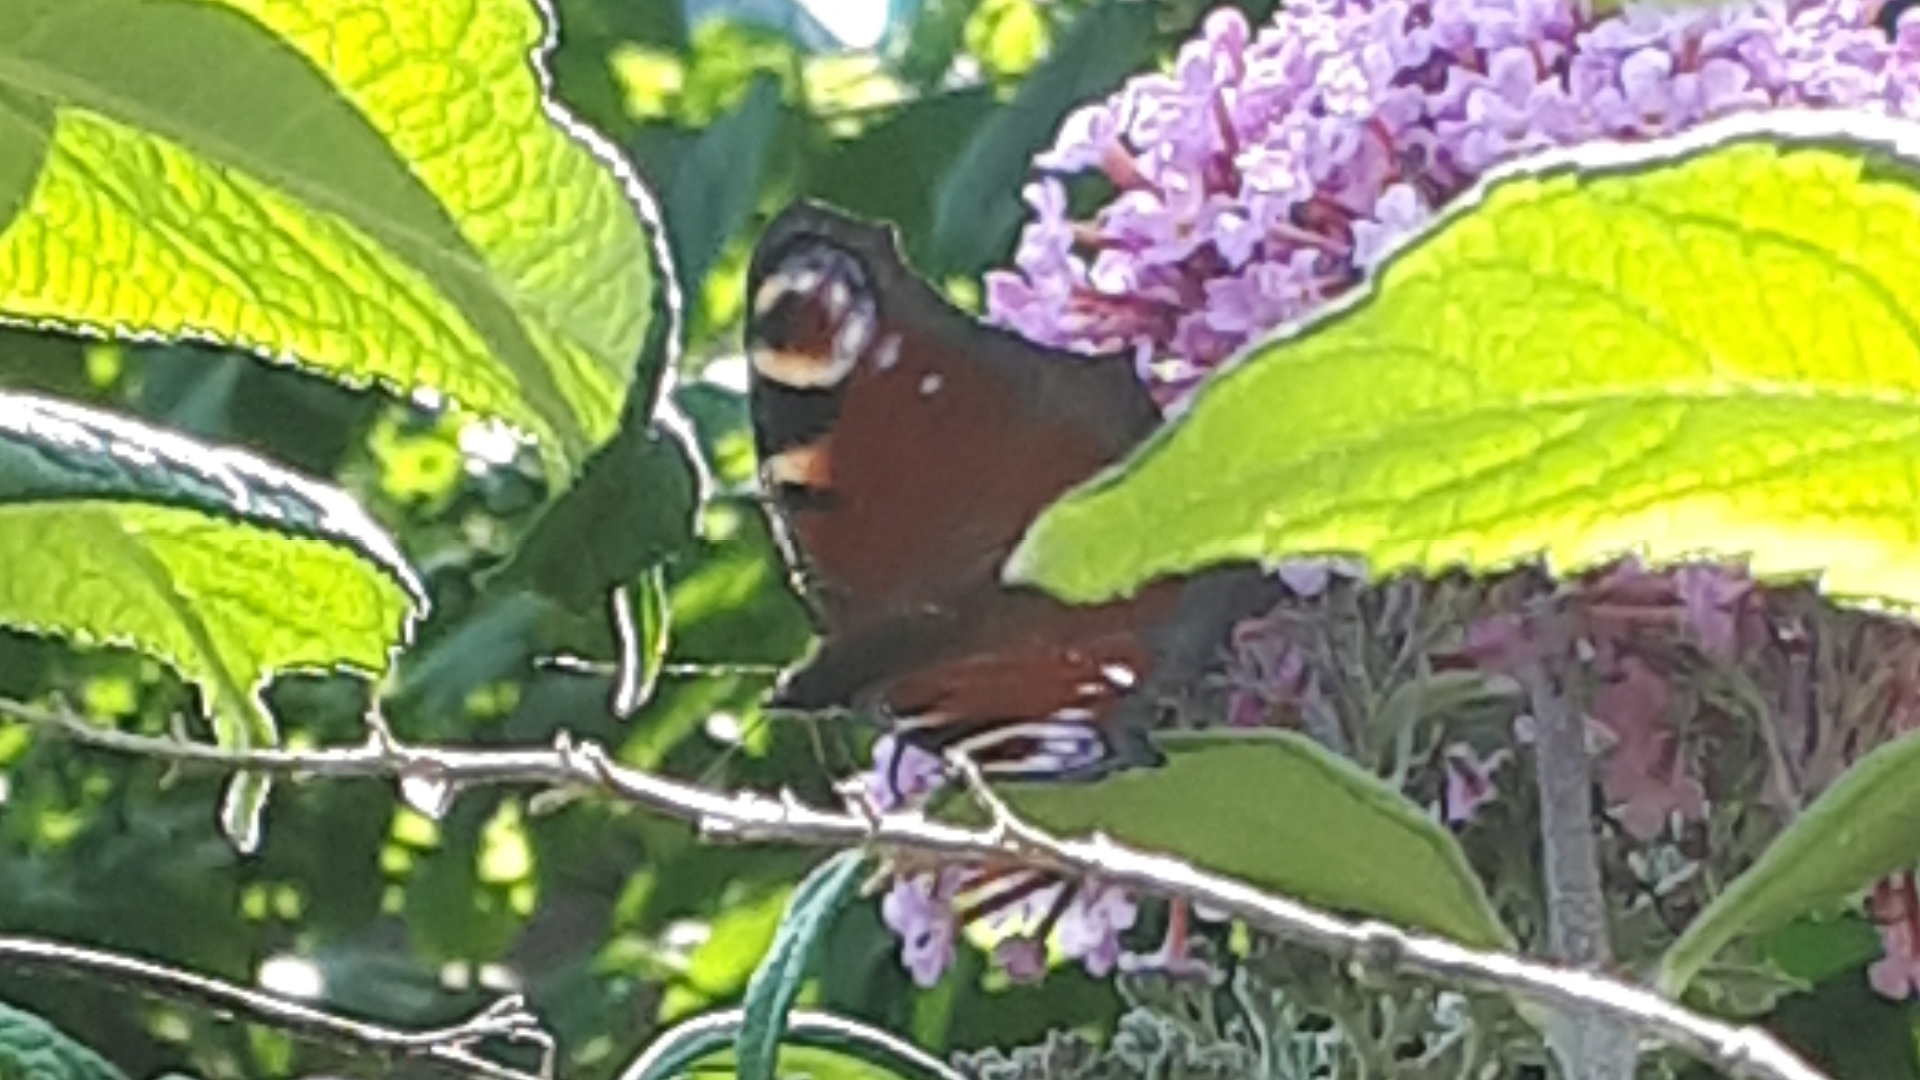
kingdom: Animalia
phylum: Arthropoda
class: Insecta
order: Lepidoptera
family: Nymphalidae
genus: Aglais
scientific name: Aglais io
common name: Peacock
